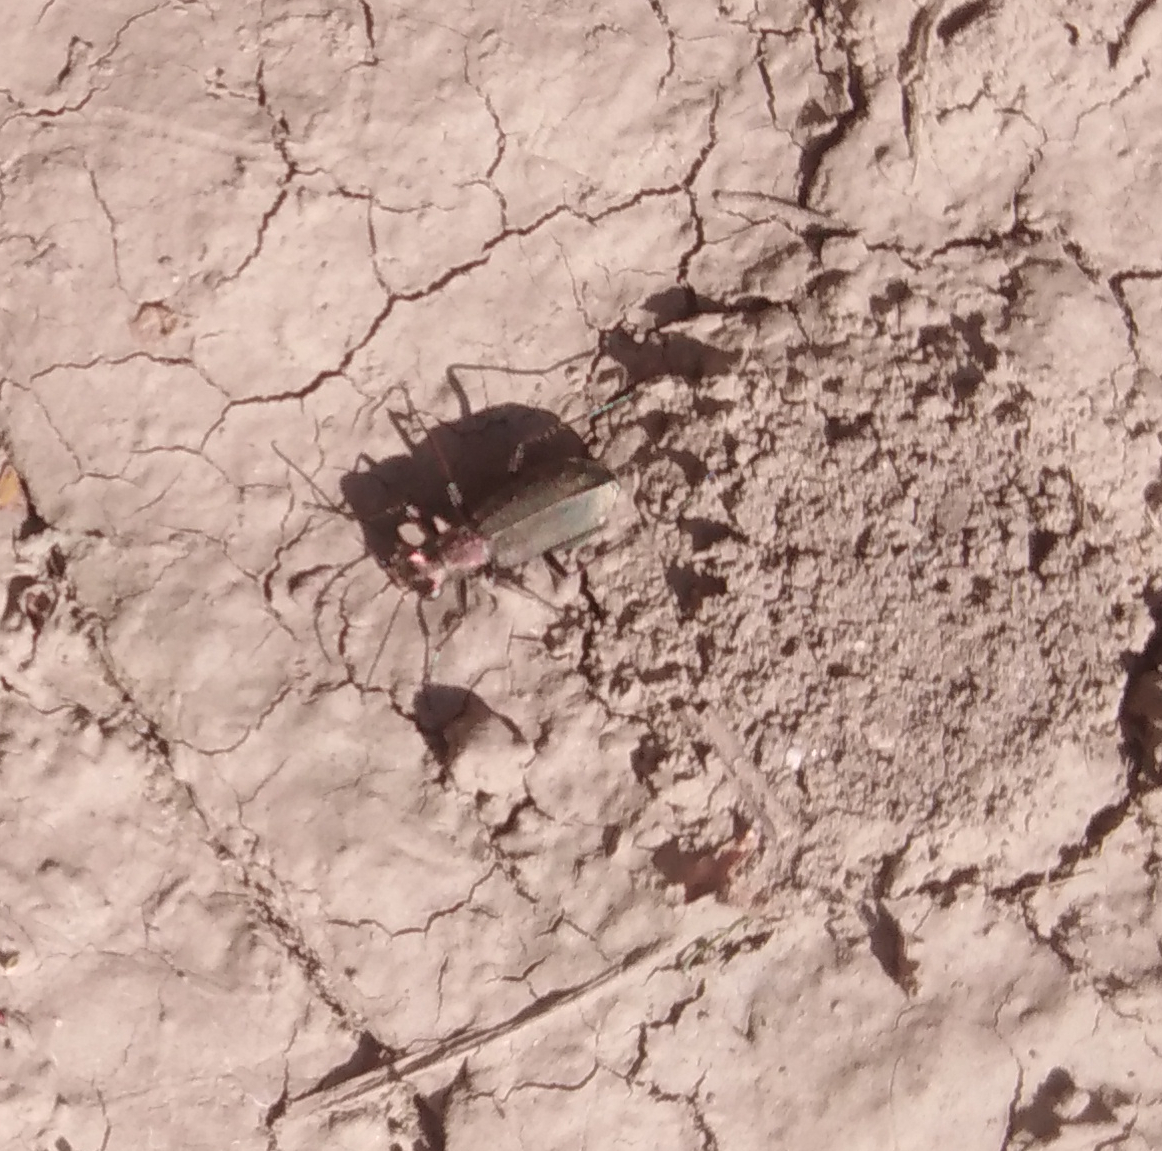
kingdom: Animalia
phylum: Arthropoda
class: Insecta
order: Coleoptera
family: Carabidae
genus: Cylindera
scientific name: Cylindera germanica
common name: Cliff tiger beetle
